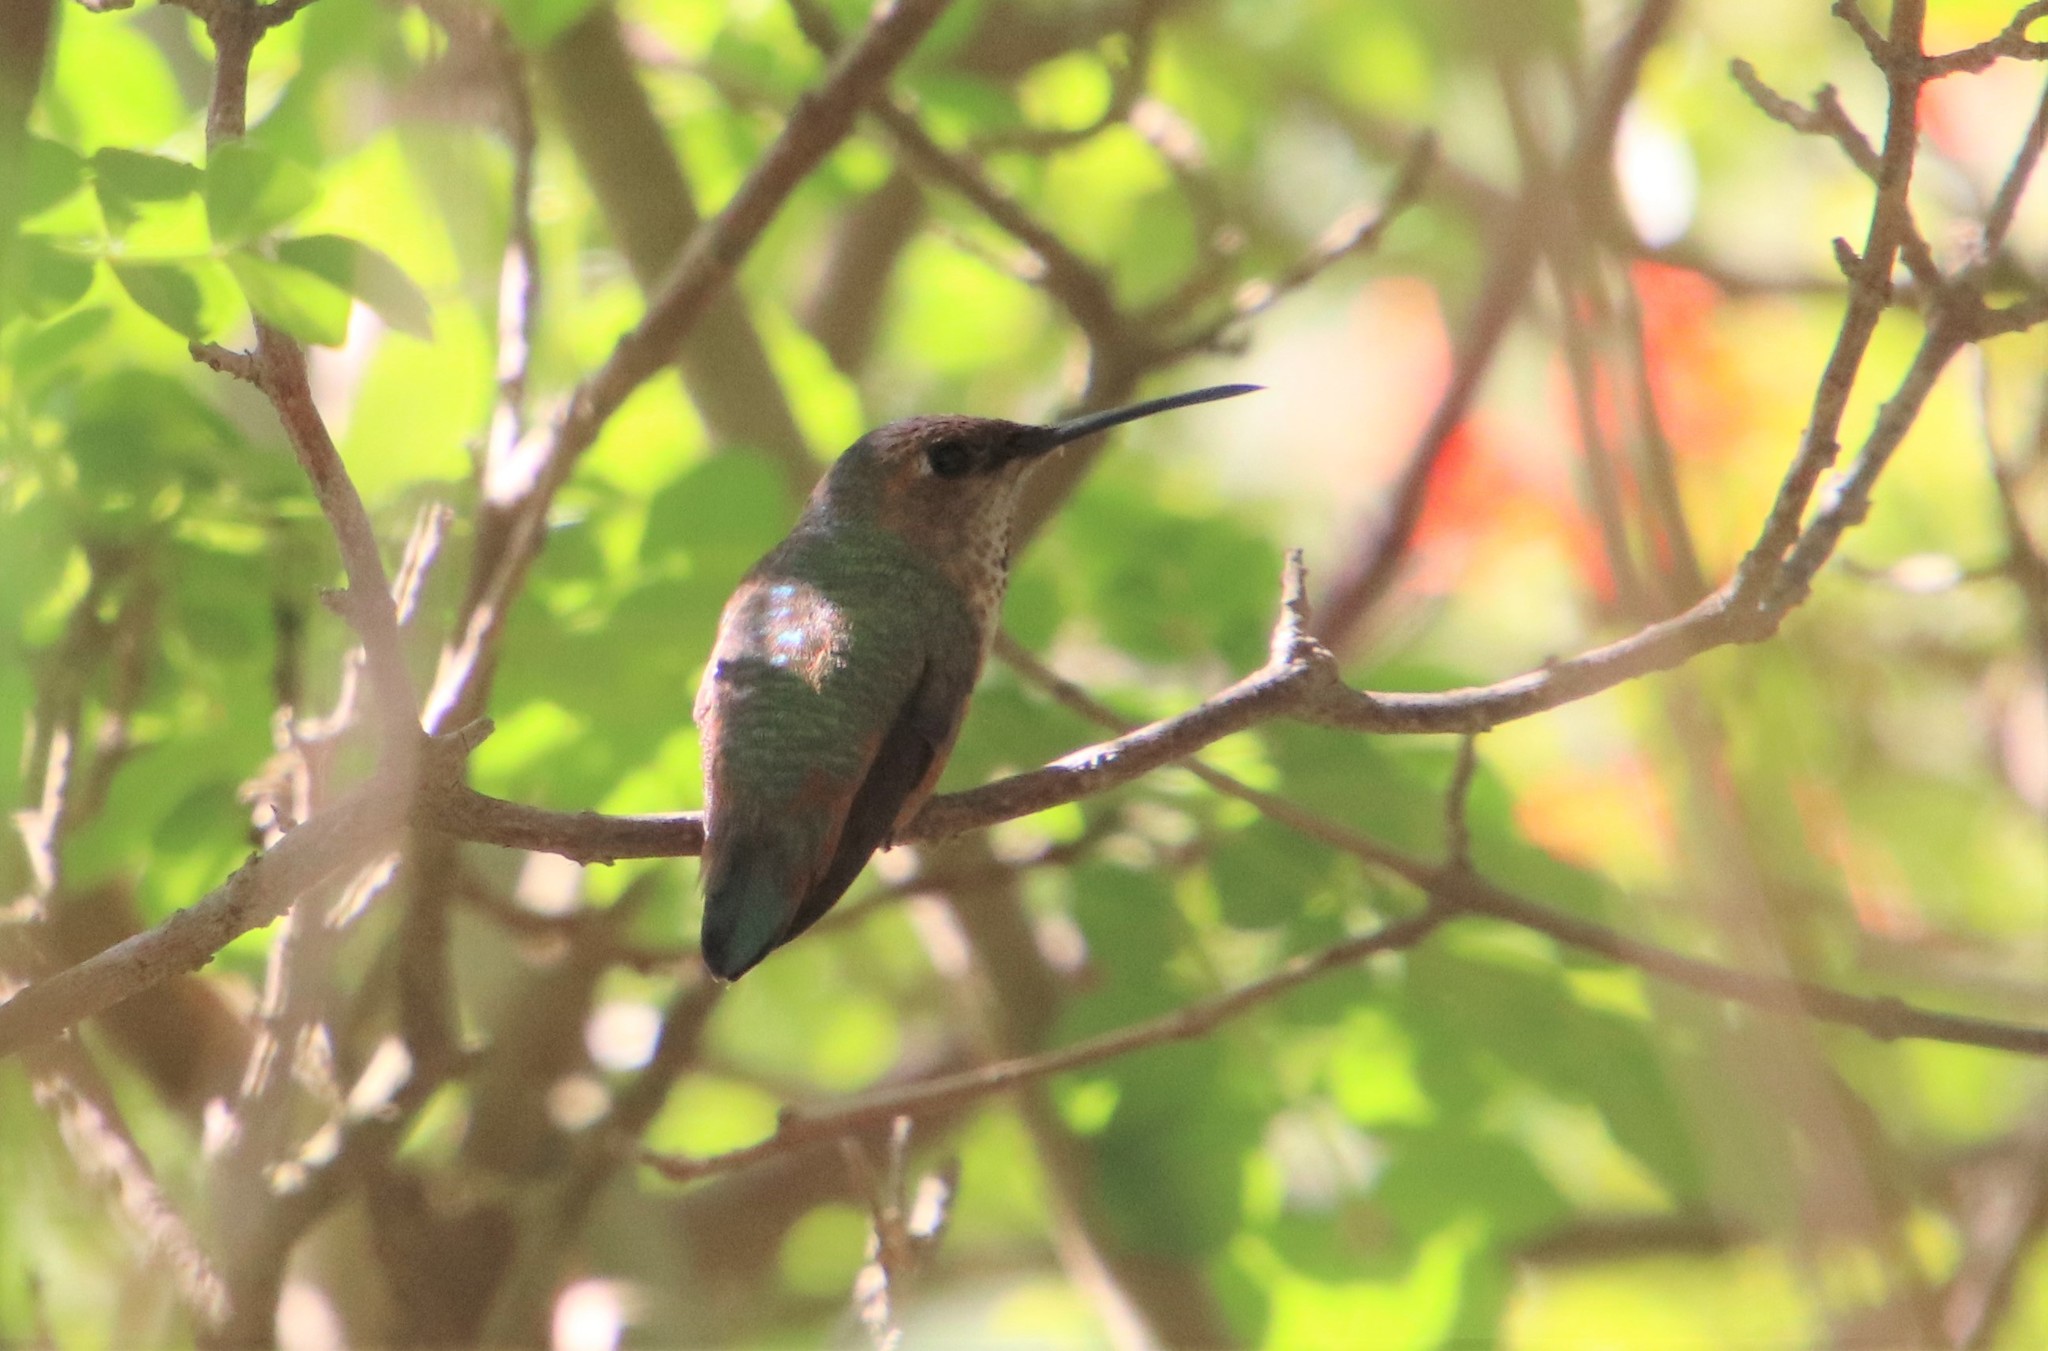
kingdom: Animalia
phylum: Chordata
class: Aves
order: Apodiformes
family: Trochilidae
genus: Selasphorus
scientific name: Selasphorus
